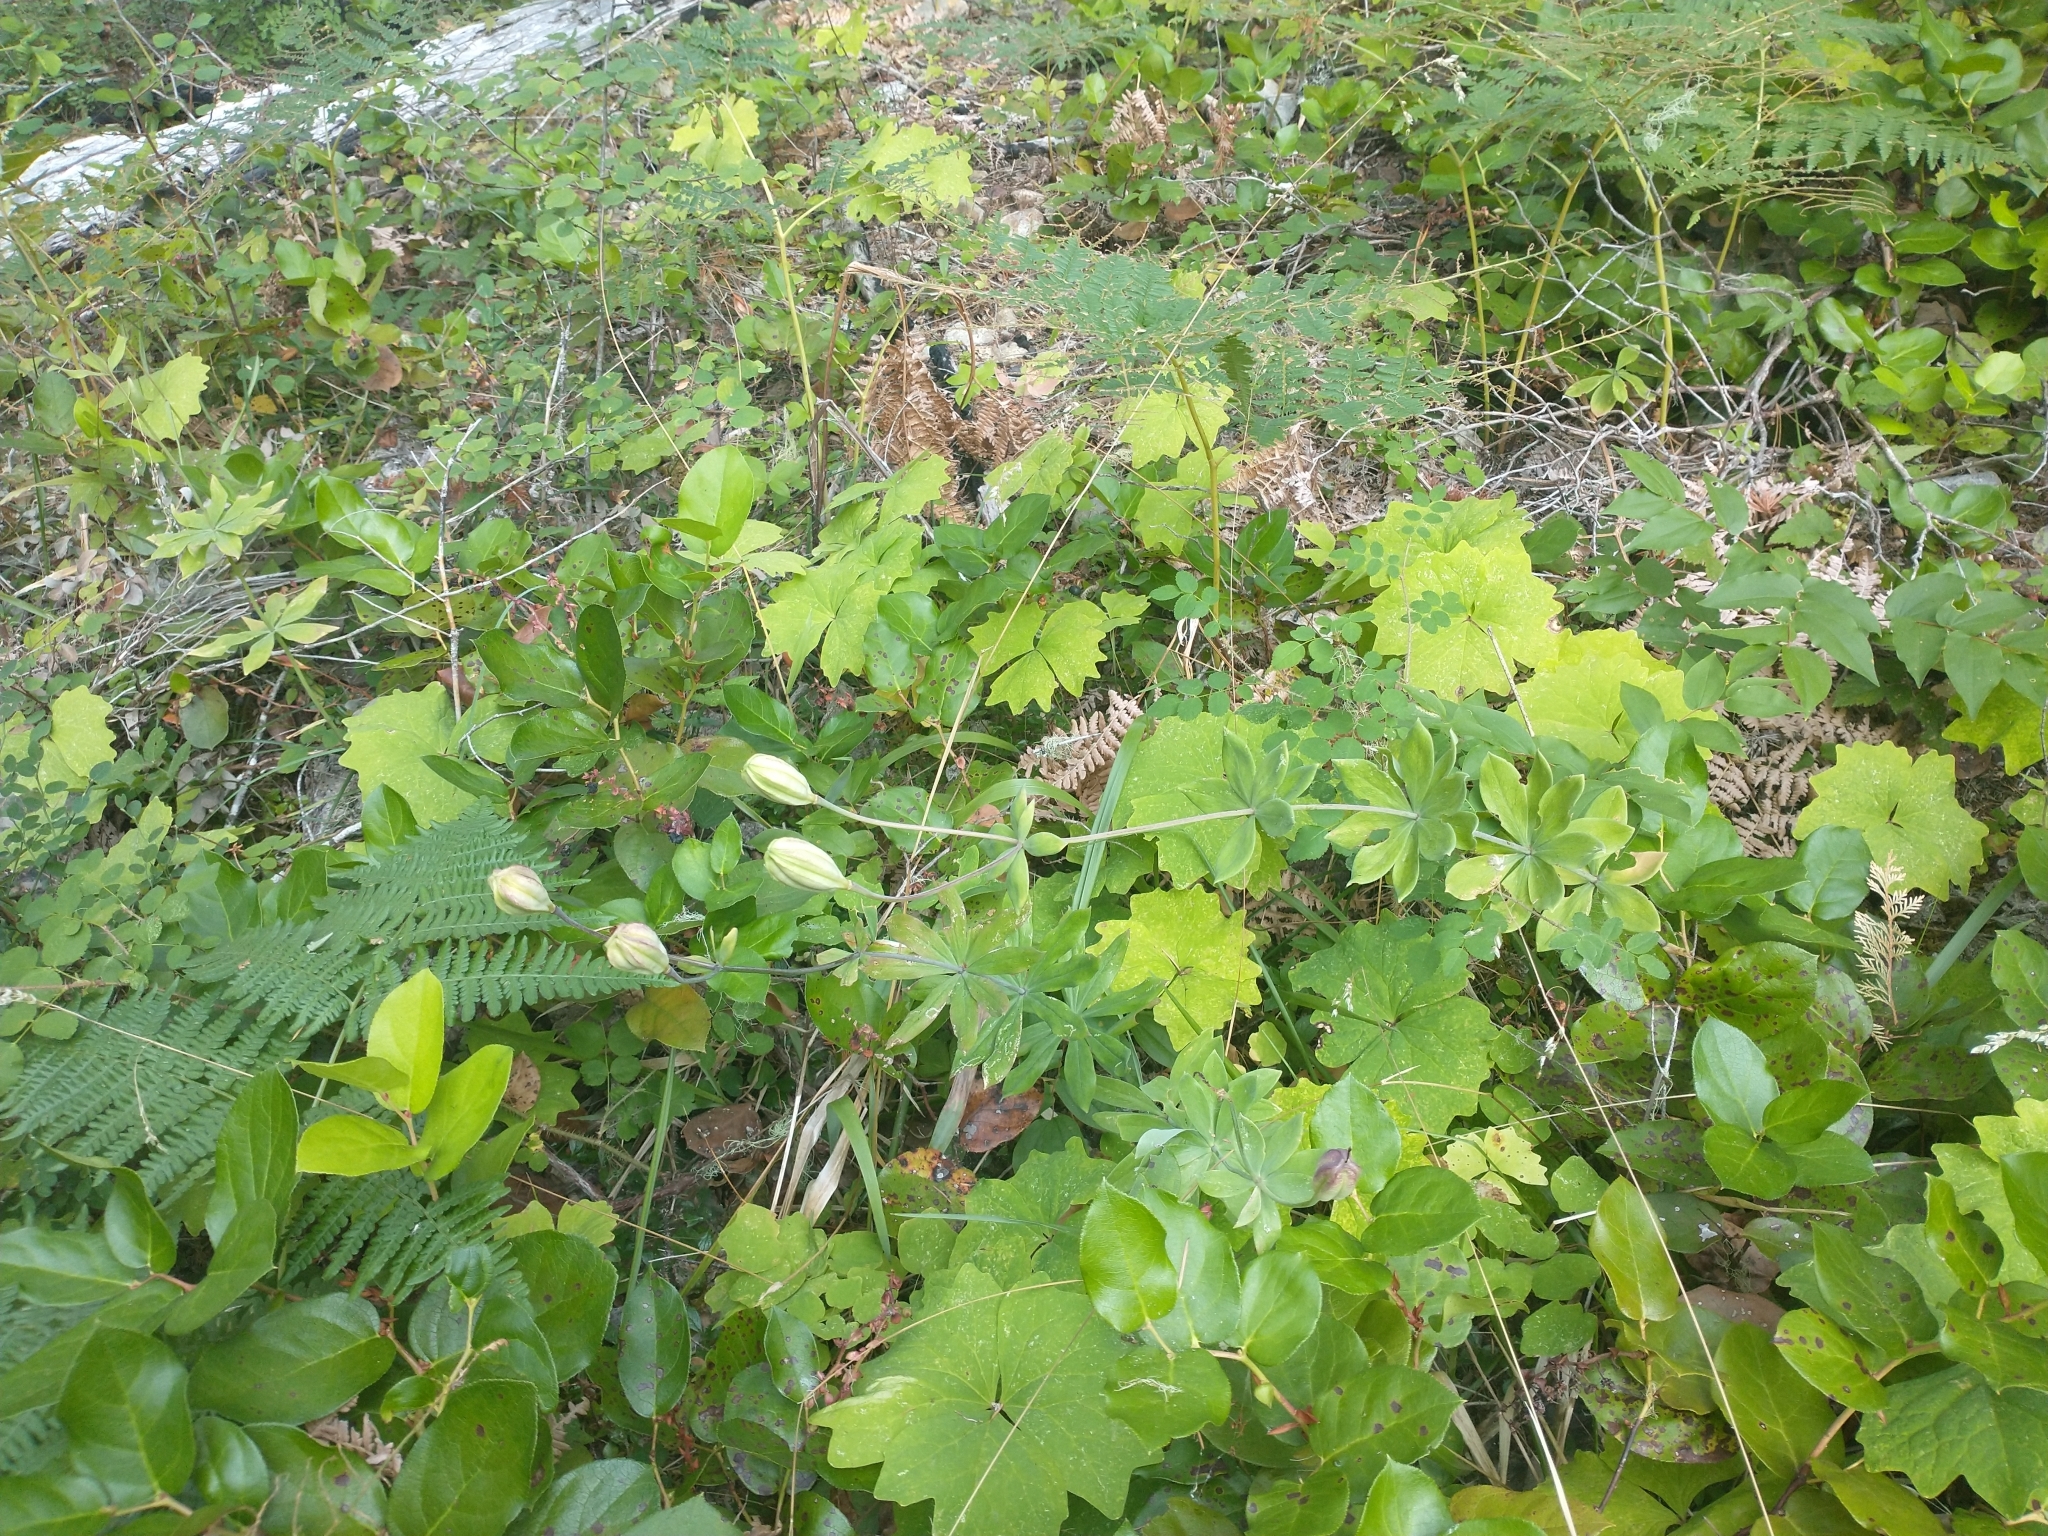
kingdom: Plantae
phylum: Tracheophyta
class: Magnoliopsida
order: Ranunculales
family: Berberidaceae
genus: Achlys
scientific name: Achlys triphylla
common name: Vanilla-leaf
